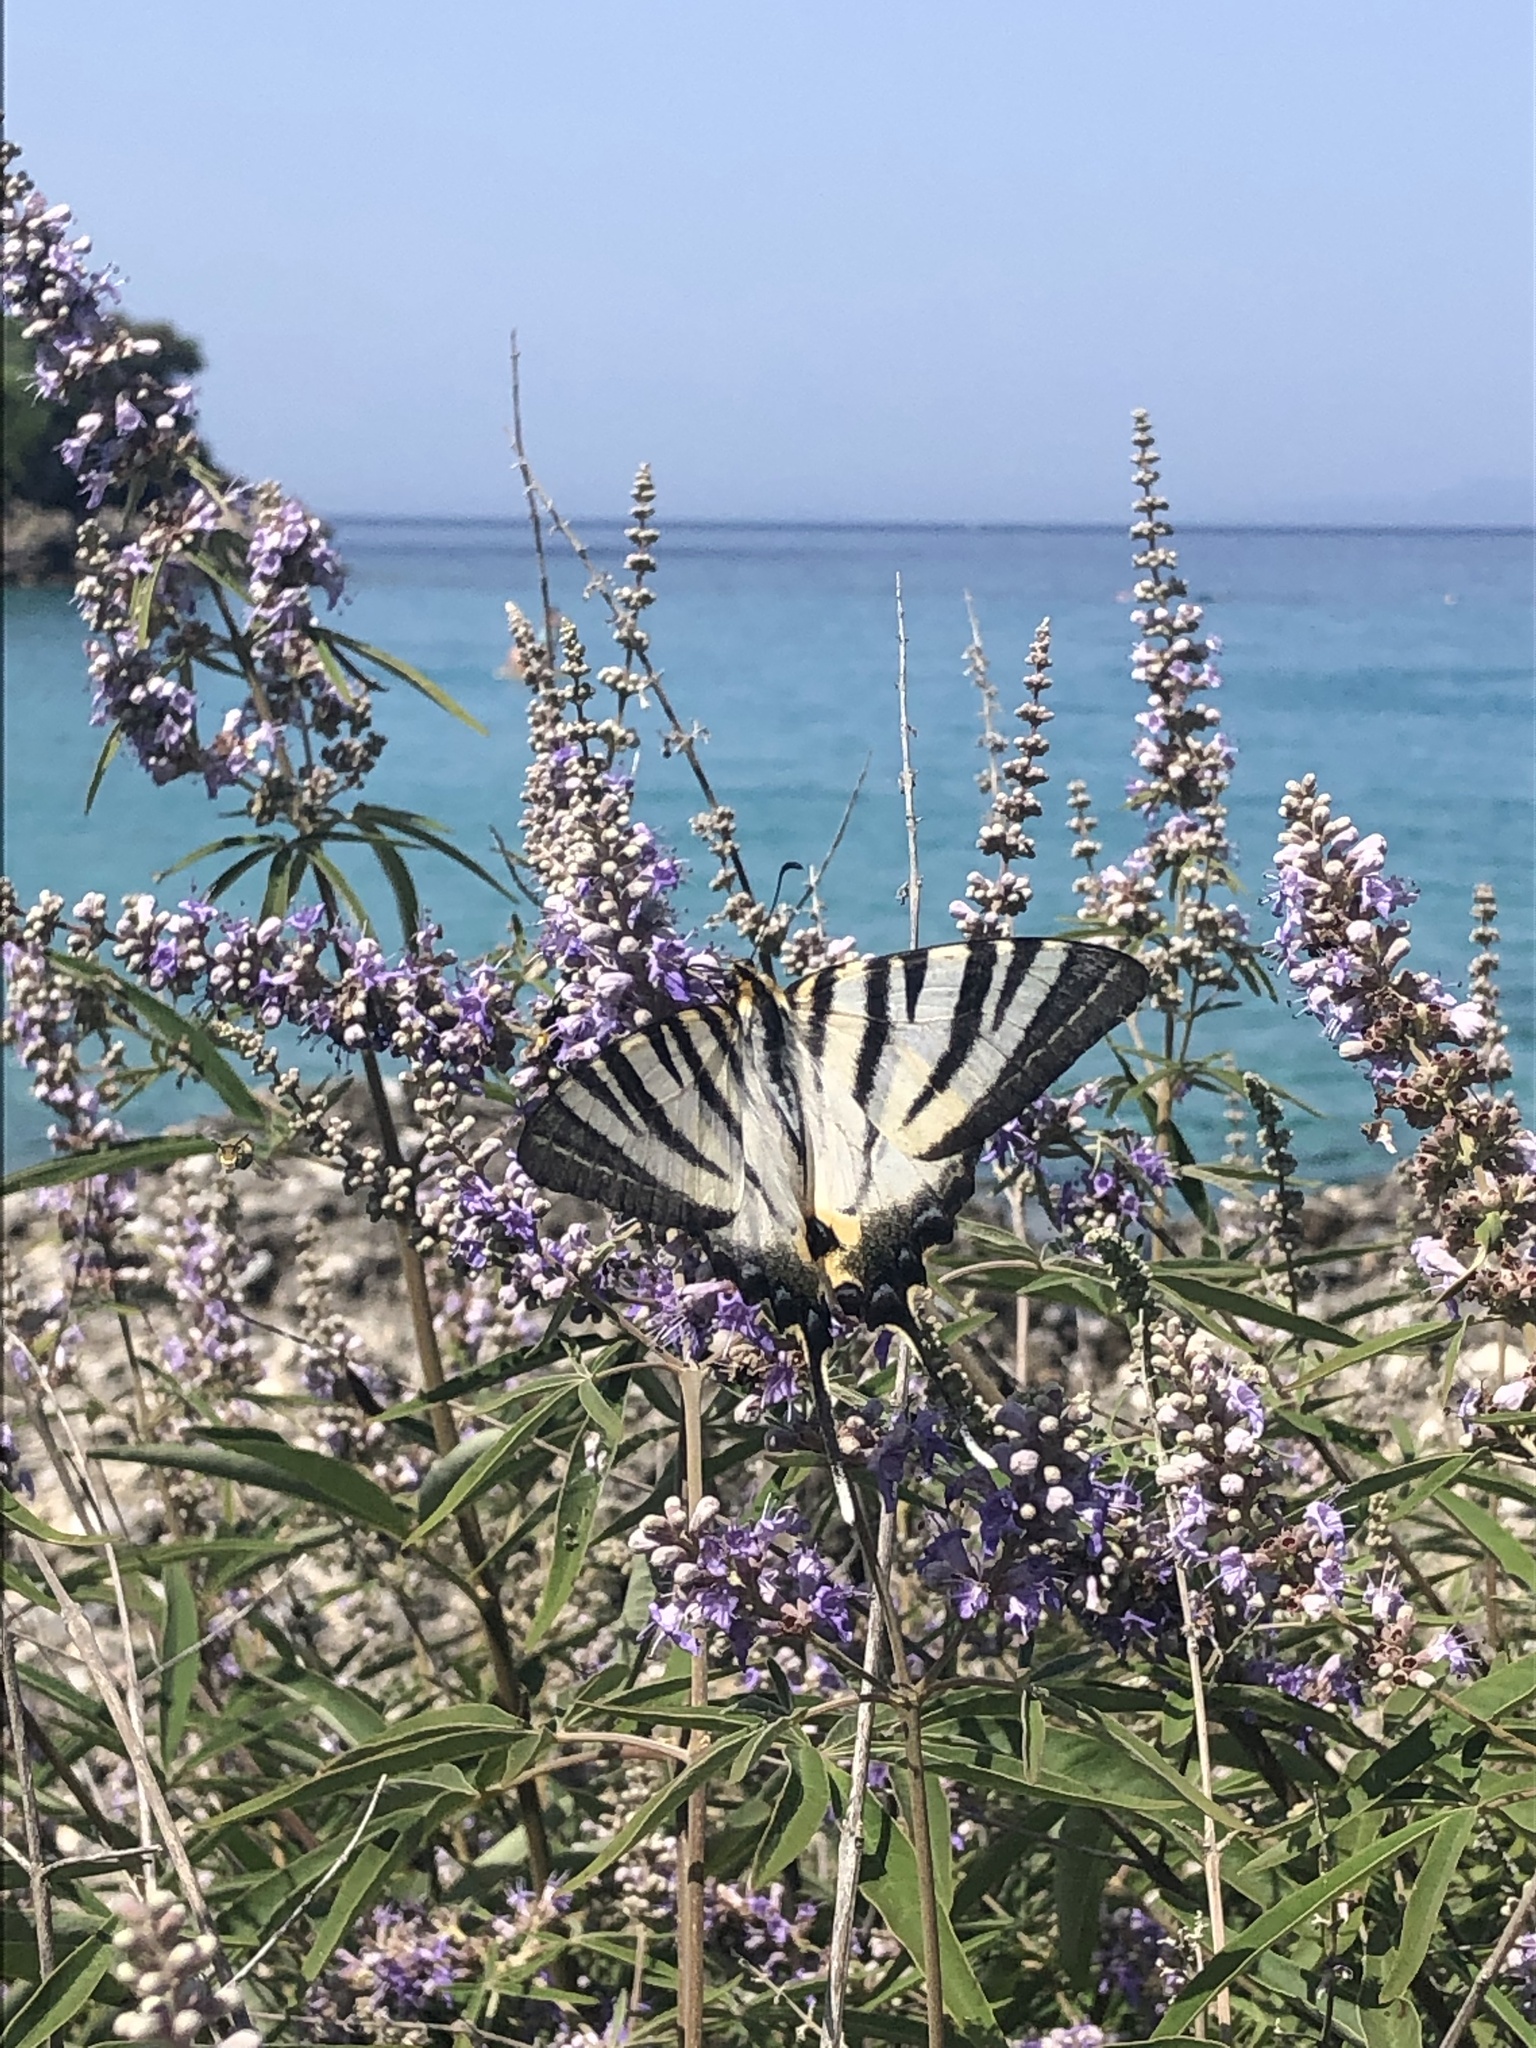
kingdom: Animalia
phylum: Arthropoda
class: Insecta
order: Lepidoptera
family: Papilionidae
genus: Iphiclides
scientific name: Iphiclides podalirius
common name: Scarce swallowtail
